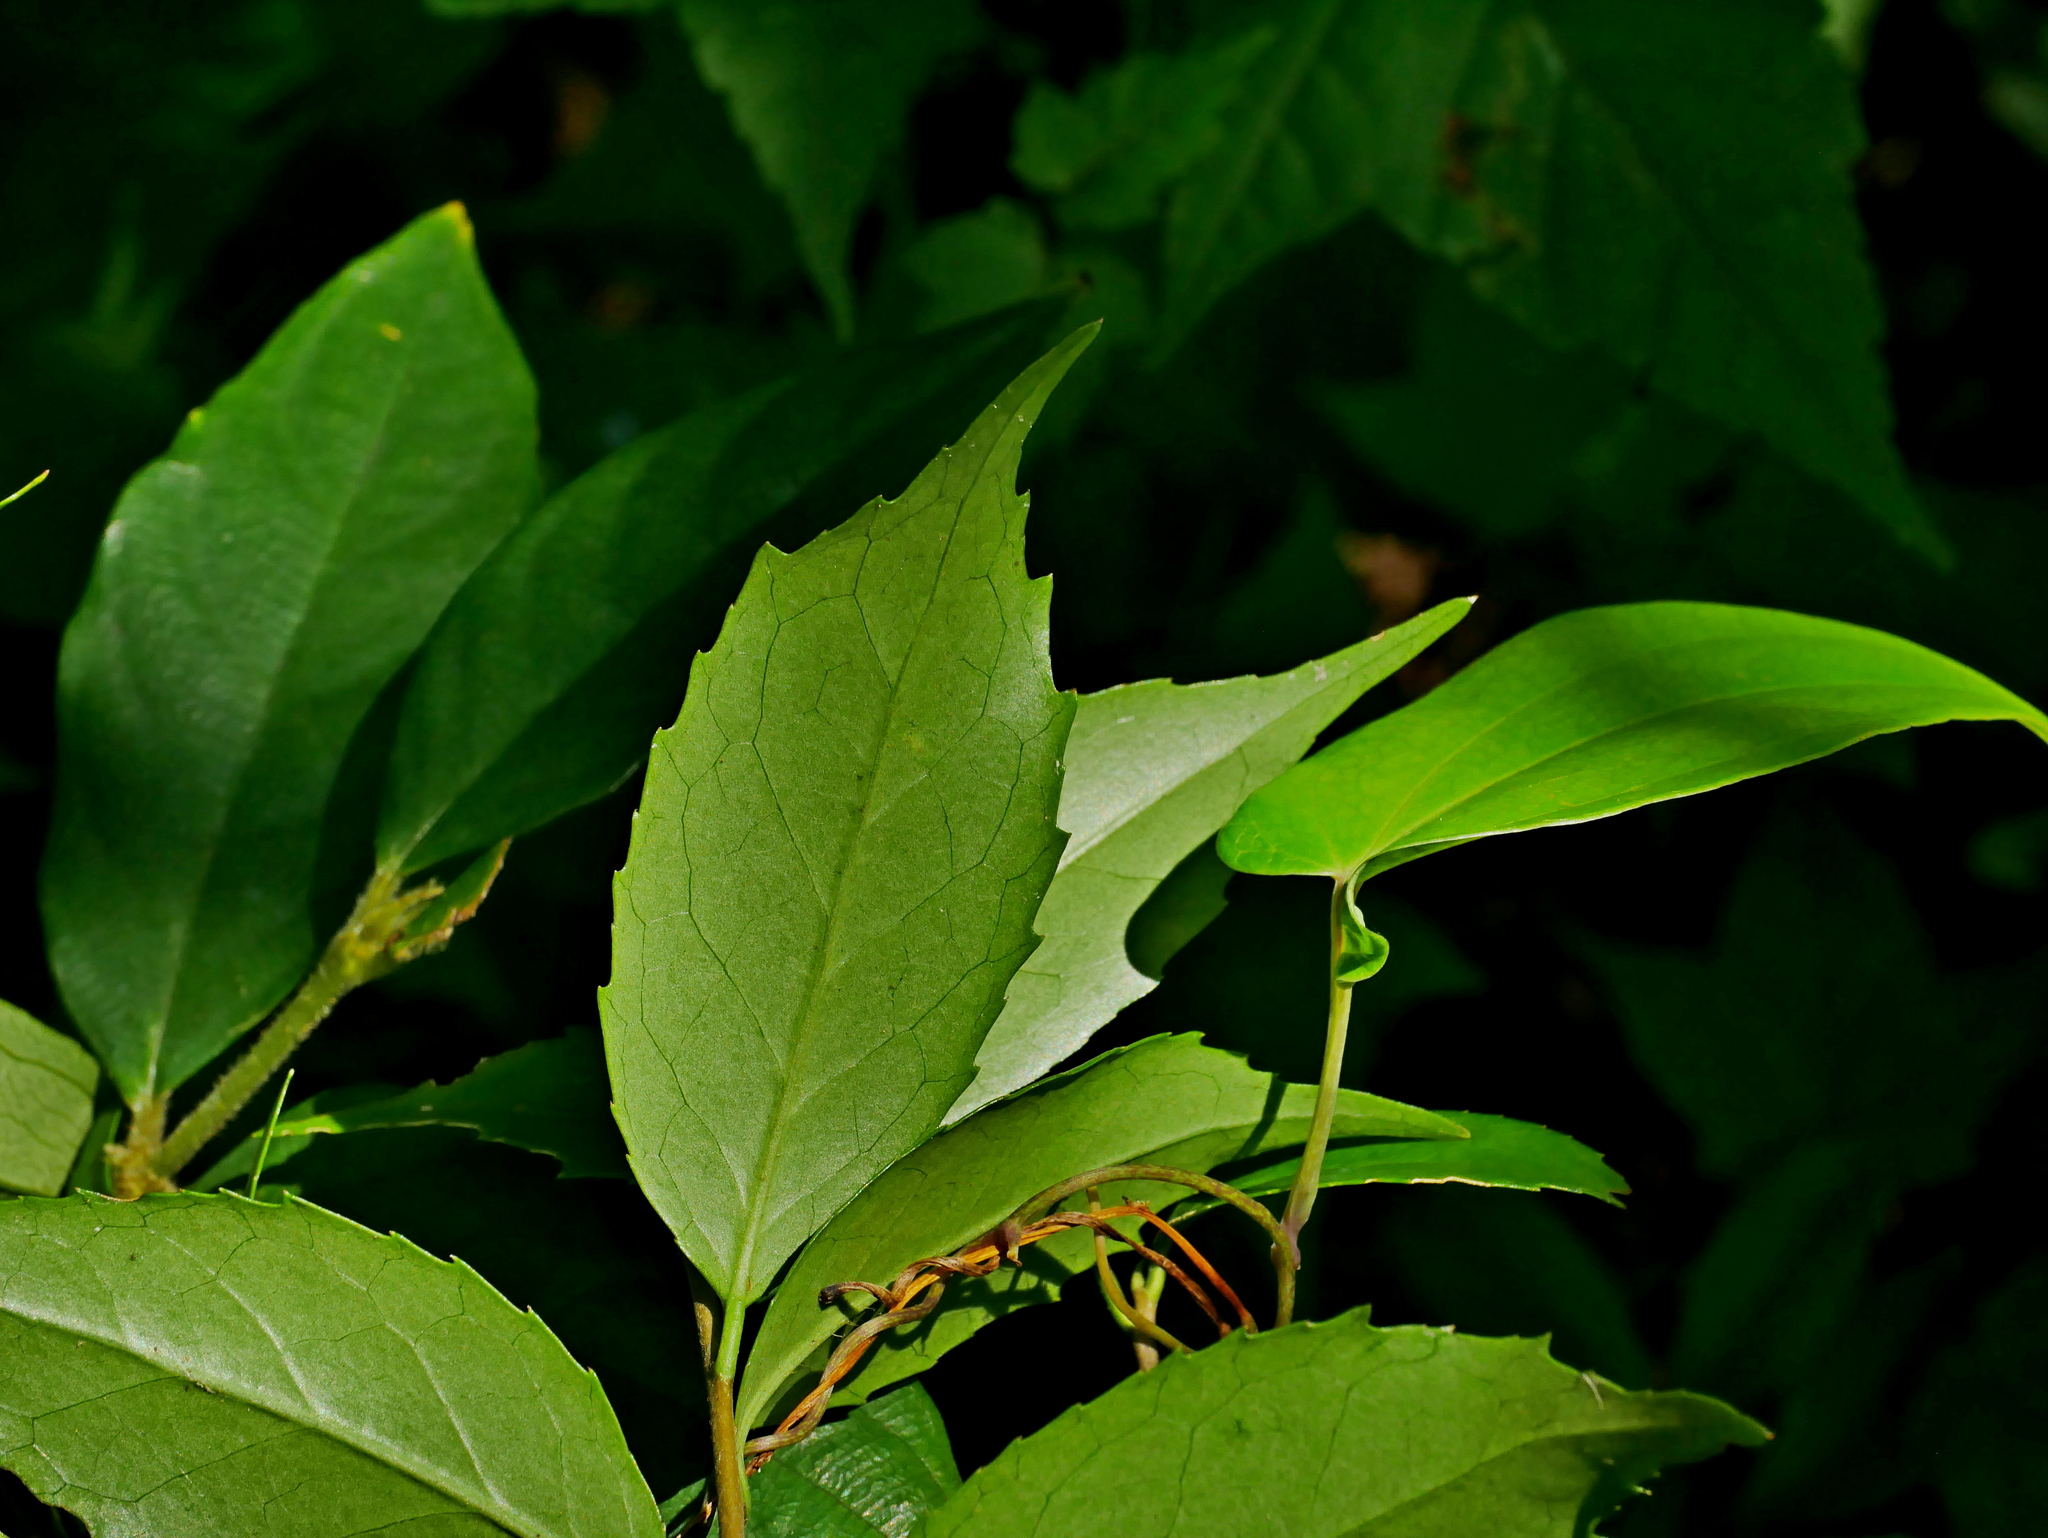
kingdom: Plantae
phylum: Tracheophyta
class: Magnoliopsida
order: Ericales
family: Symplocaceae
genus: Symplocos
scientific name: Symplocos sumuntia
